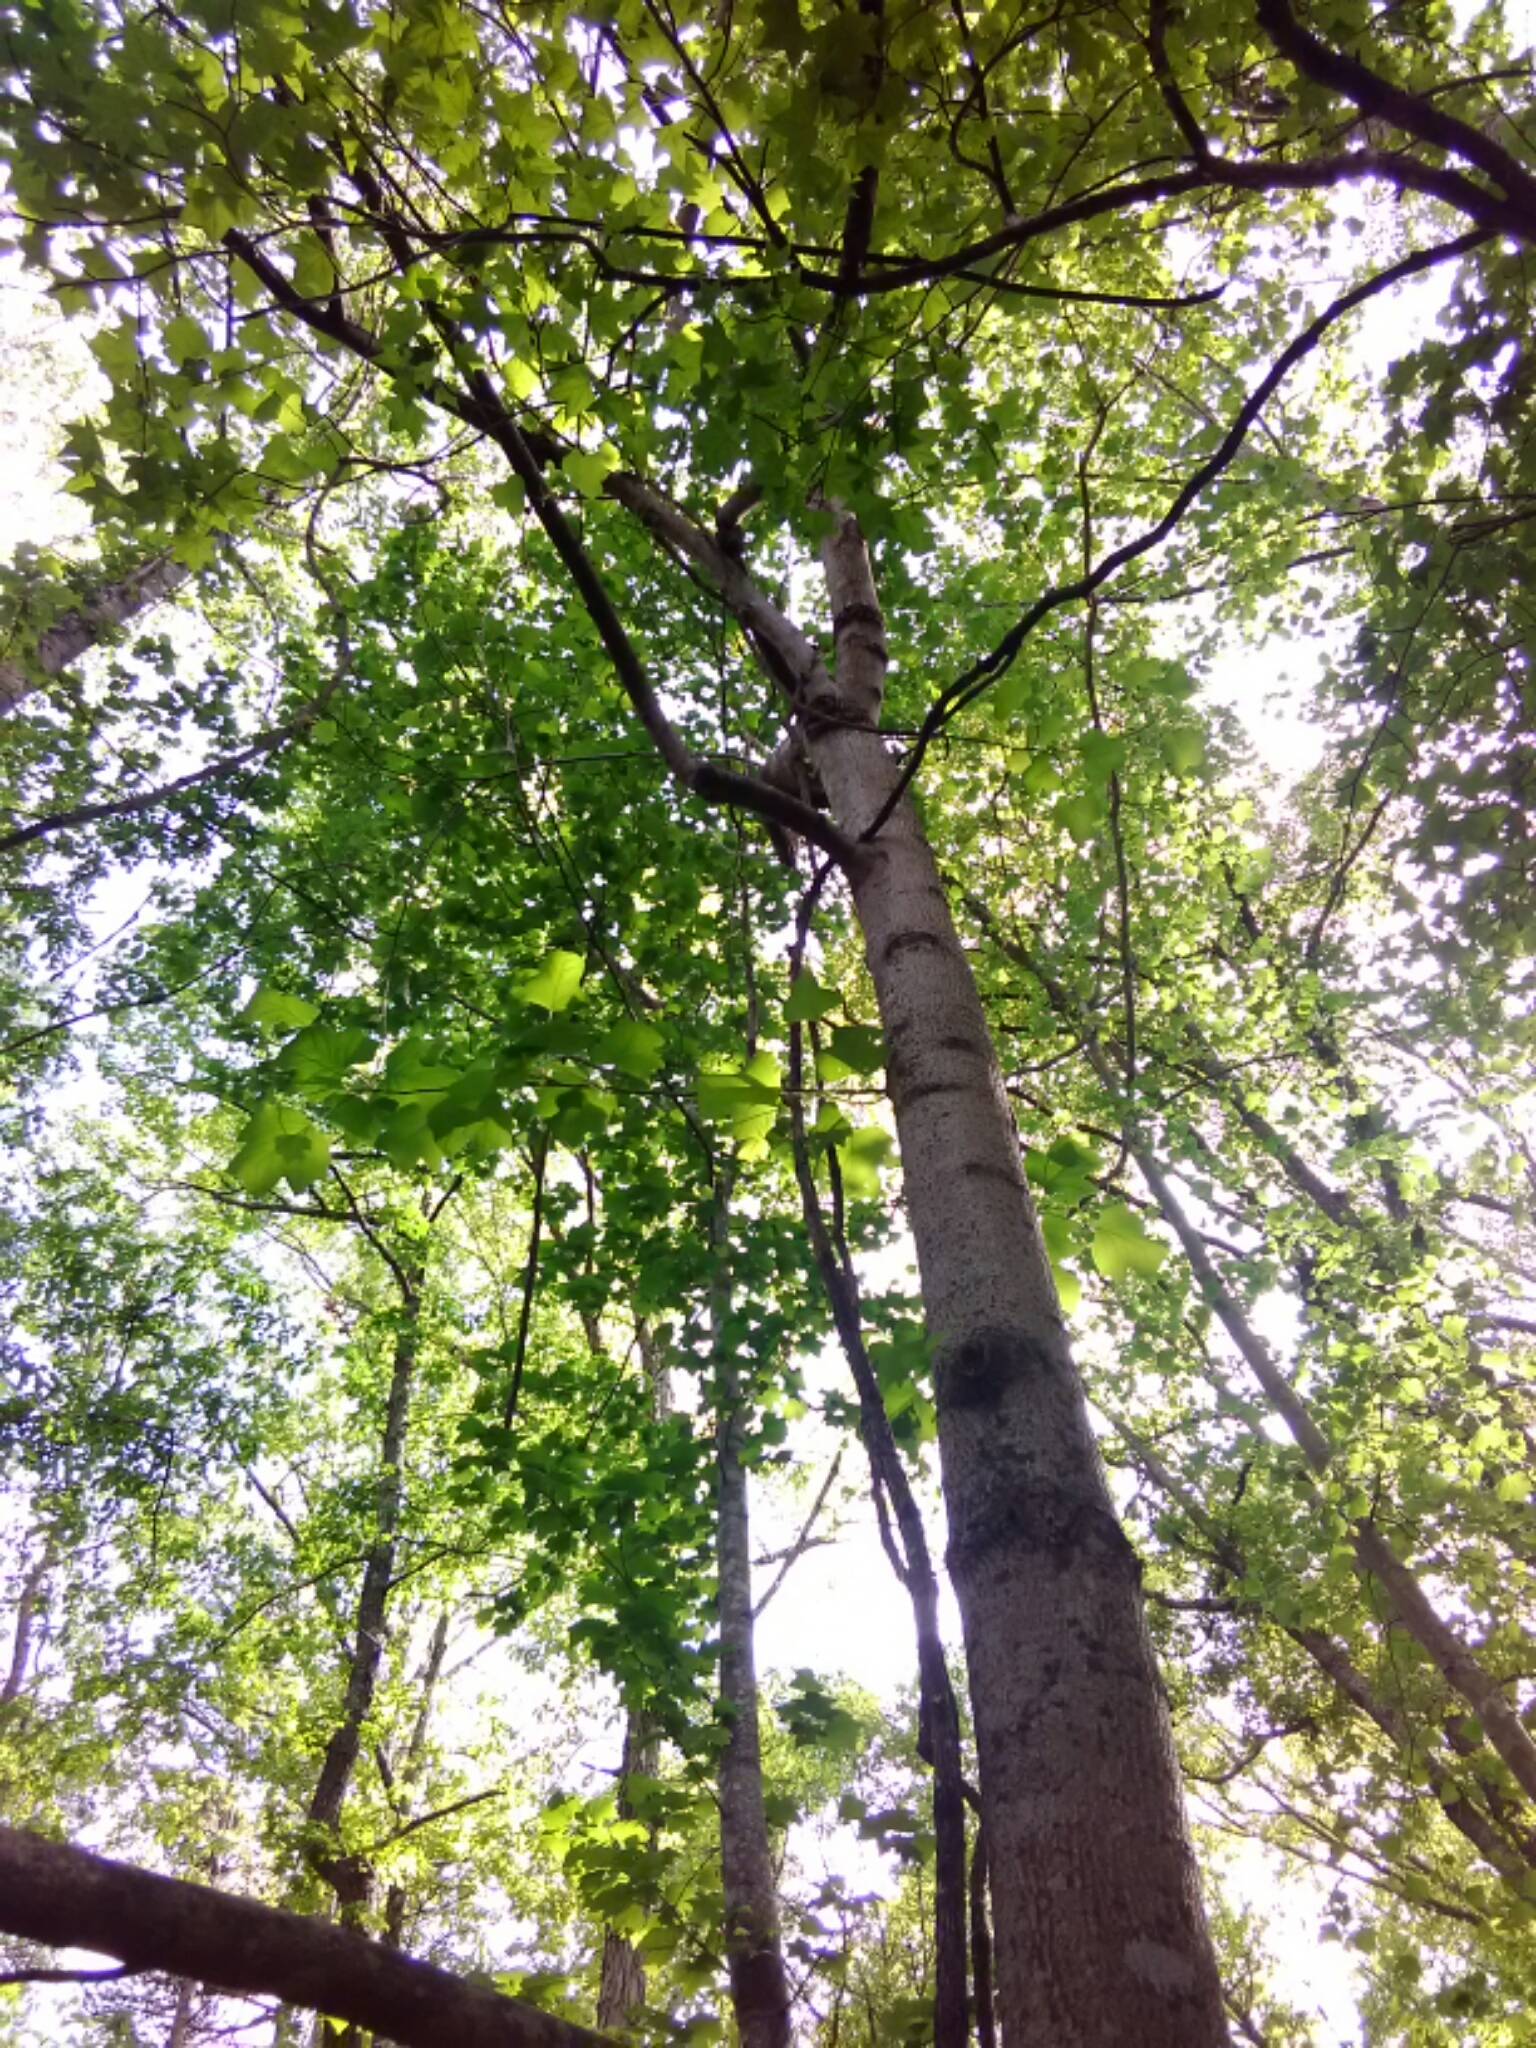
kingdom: Plantae
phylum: Tracheophyta
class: Magnoliopsida
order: Magnoliales
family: Magnoliaceae
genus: Liriodendron
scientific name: Liriodendron tulipifera
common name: Tulip tree
